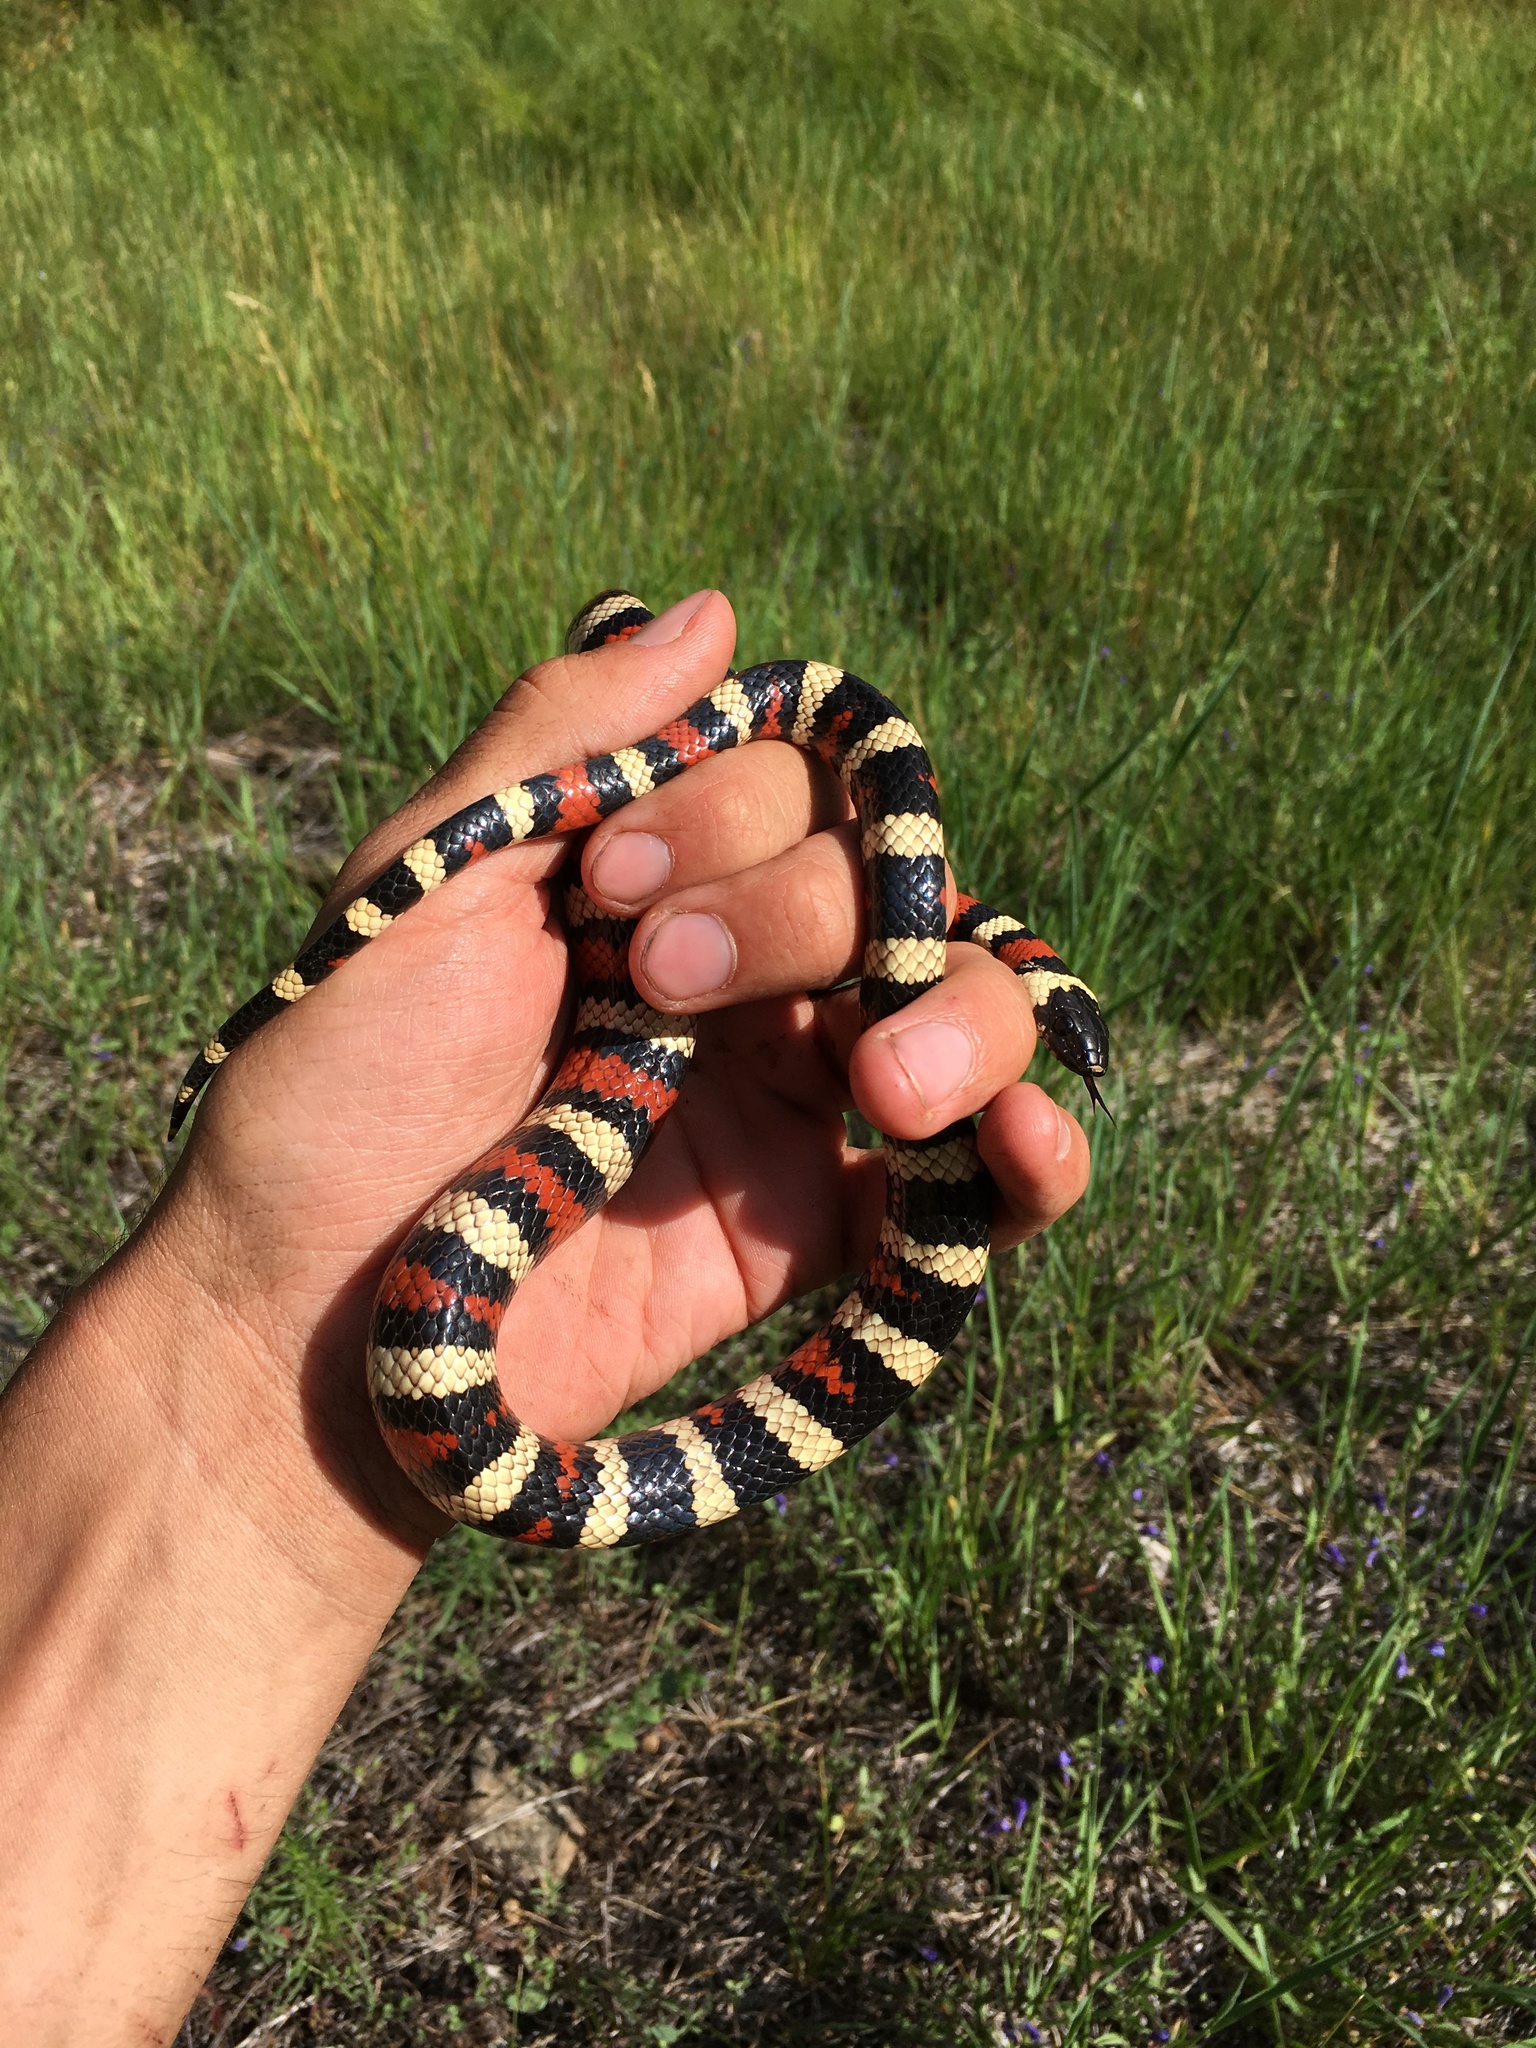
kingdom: Animalia
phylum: Chordata
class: Squamata
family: Colubridae
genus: Lampropeltis
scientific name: Lampropeltis zonata
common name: California mountain kingsnake
